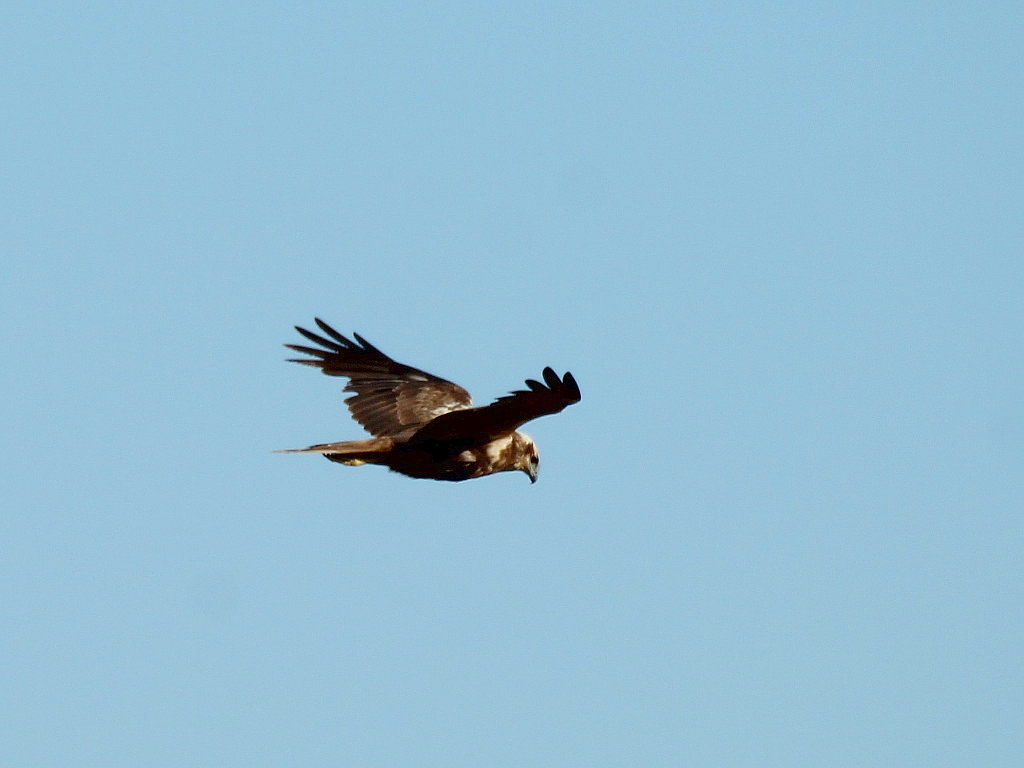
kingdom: Animalia
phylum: Chordata
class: Aves
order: Accipitriformes
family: Accipitridae
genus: Circus
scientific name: Circus aeruginosus
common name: Western marsh harrier
